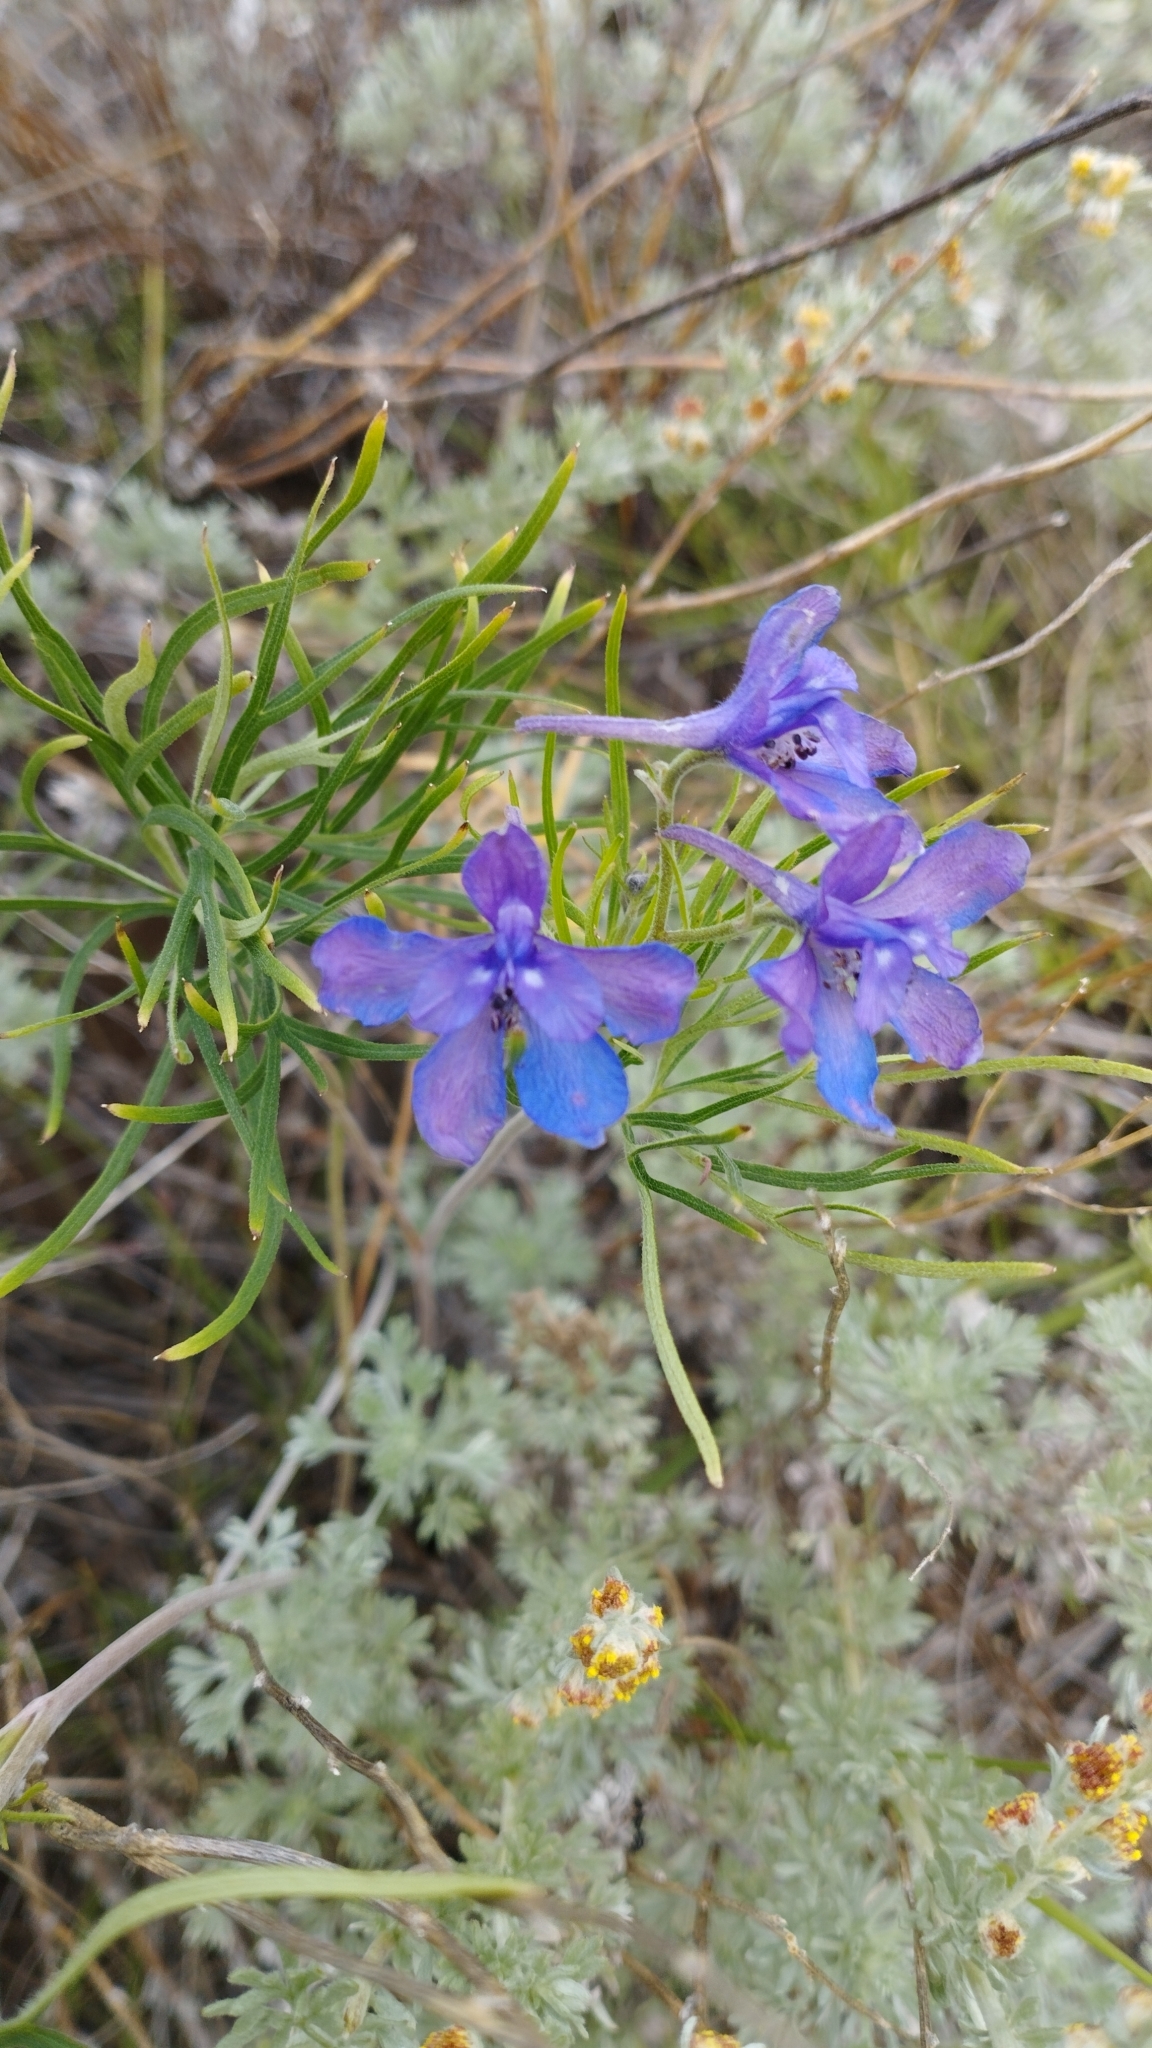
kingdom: Plantae
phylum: Tracheophyta
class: Magnoliopsida
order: Ranunculales
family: Ranunculaceae
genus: Delphinium
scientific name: Delphinium grandiflorum
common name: Siberian larkspur
